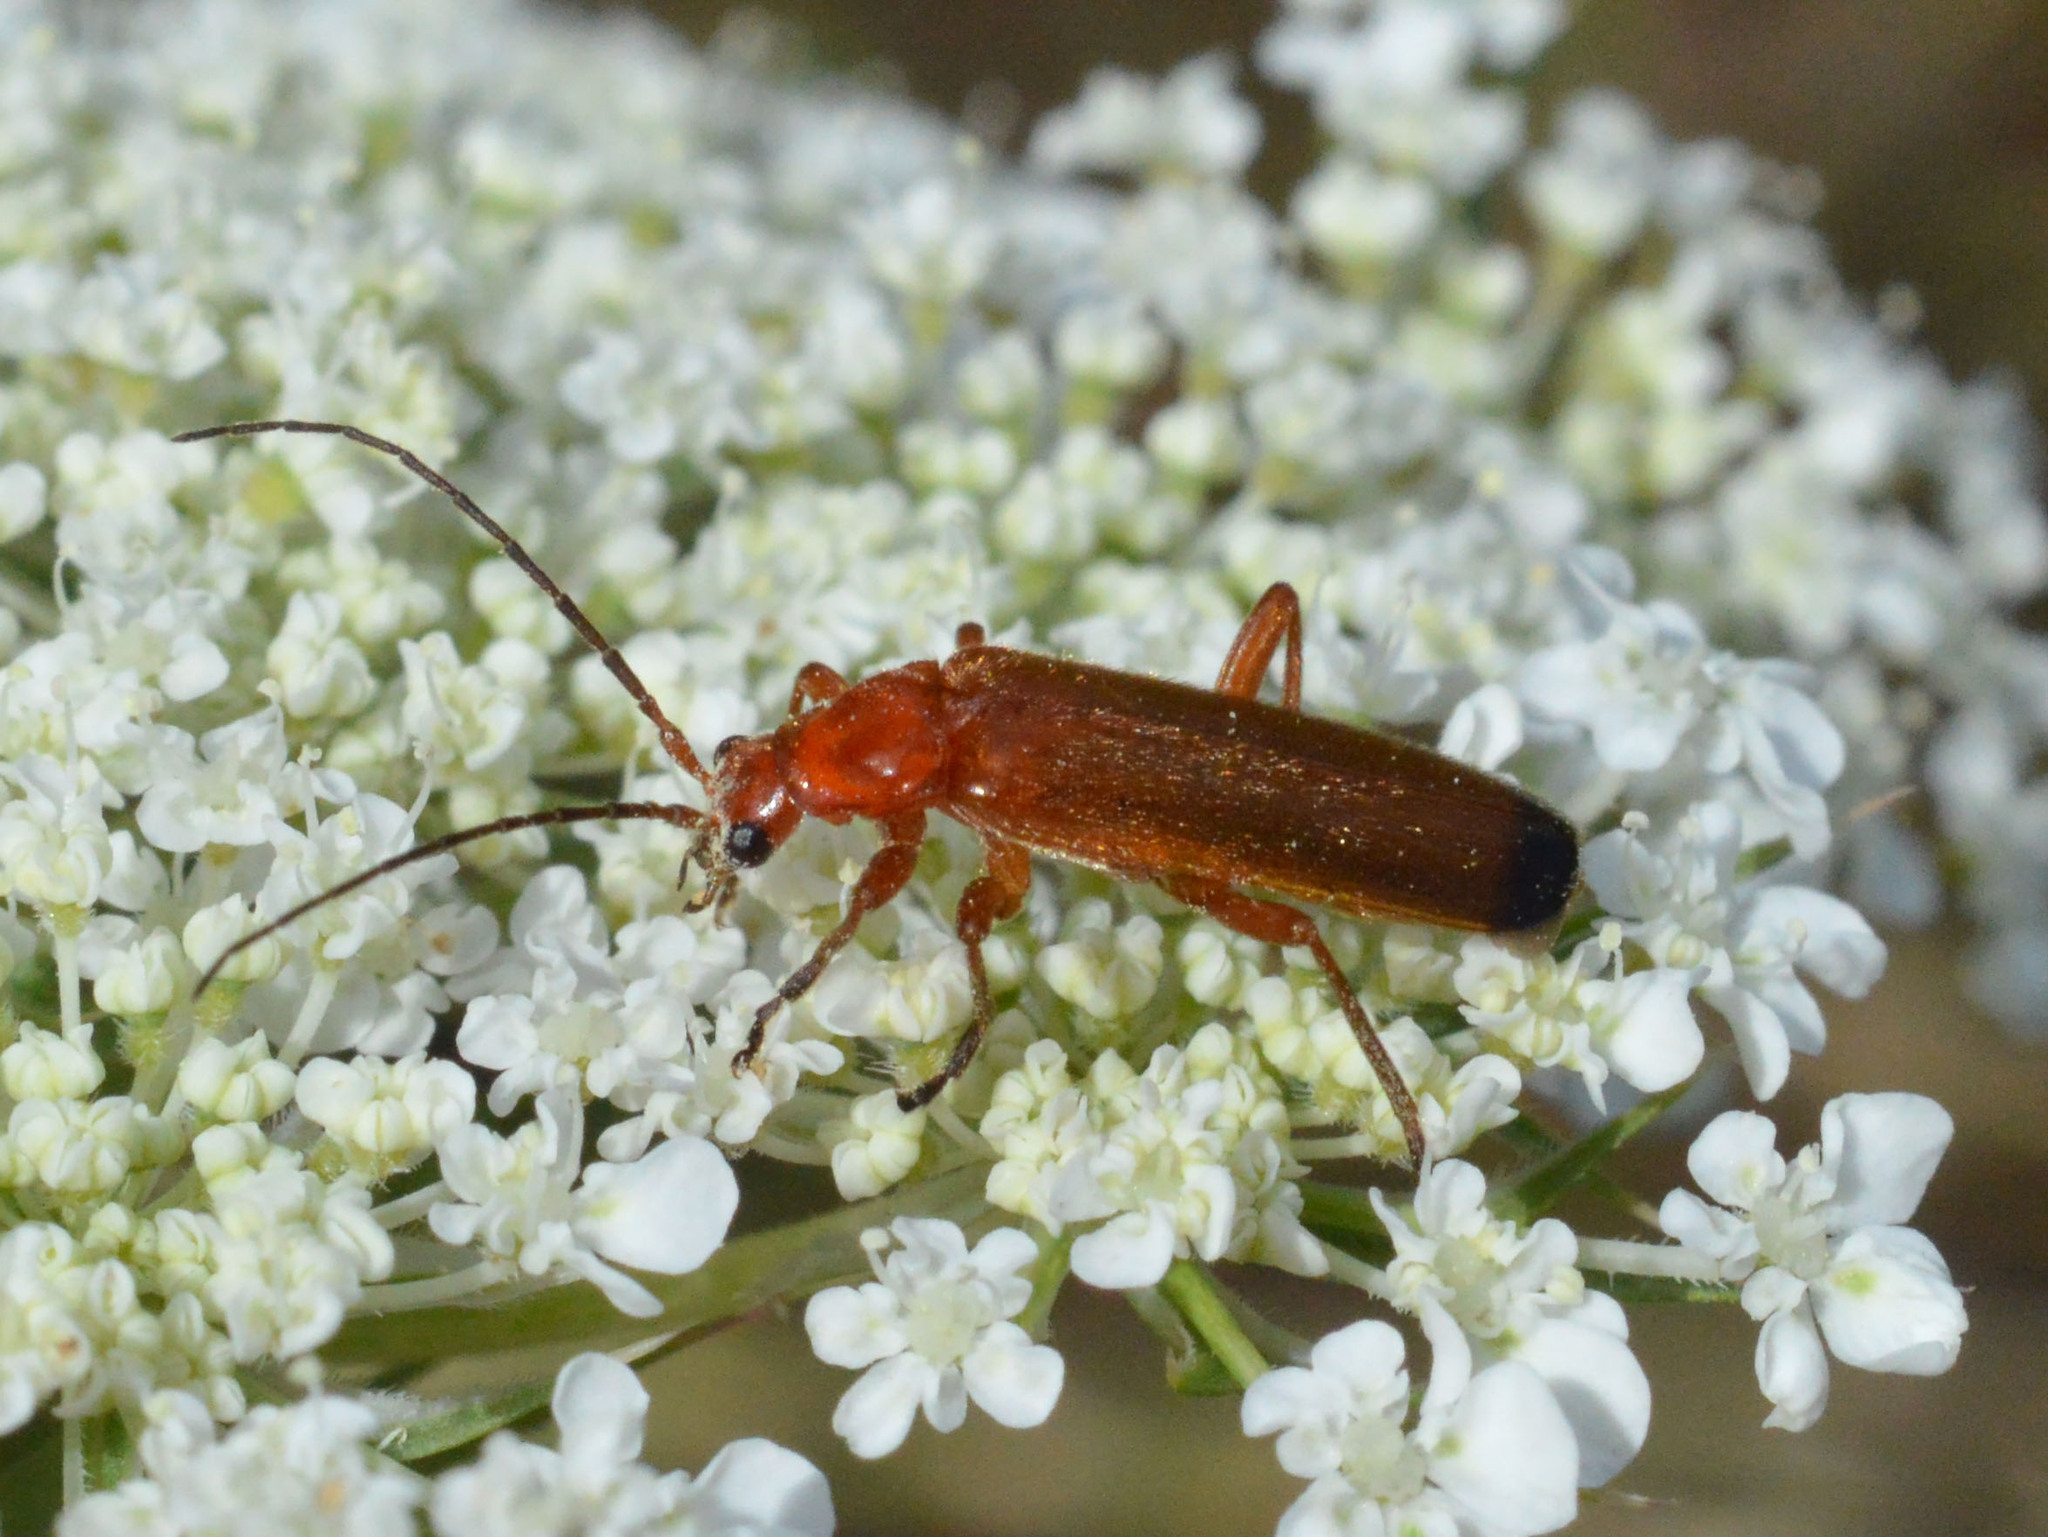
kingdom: Animalia
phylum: Arthropoda
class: Insecta
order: Coleoptera
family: Cantharidae
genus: Rhagonycha
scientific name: Rhagonycha fulva
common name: Common red soldier beetle
